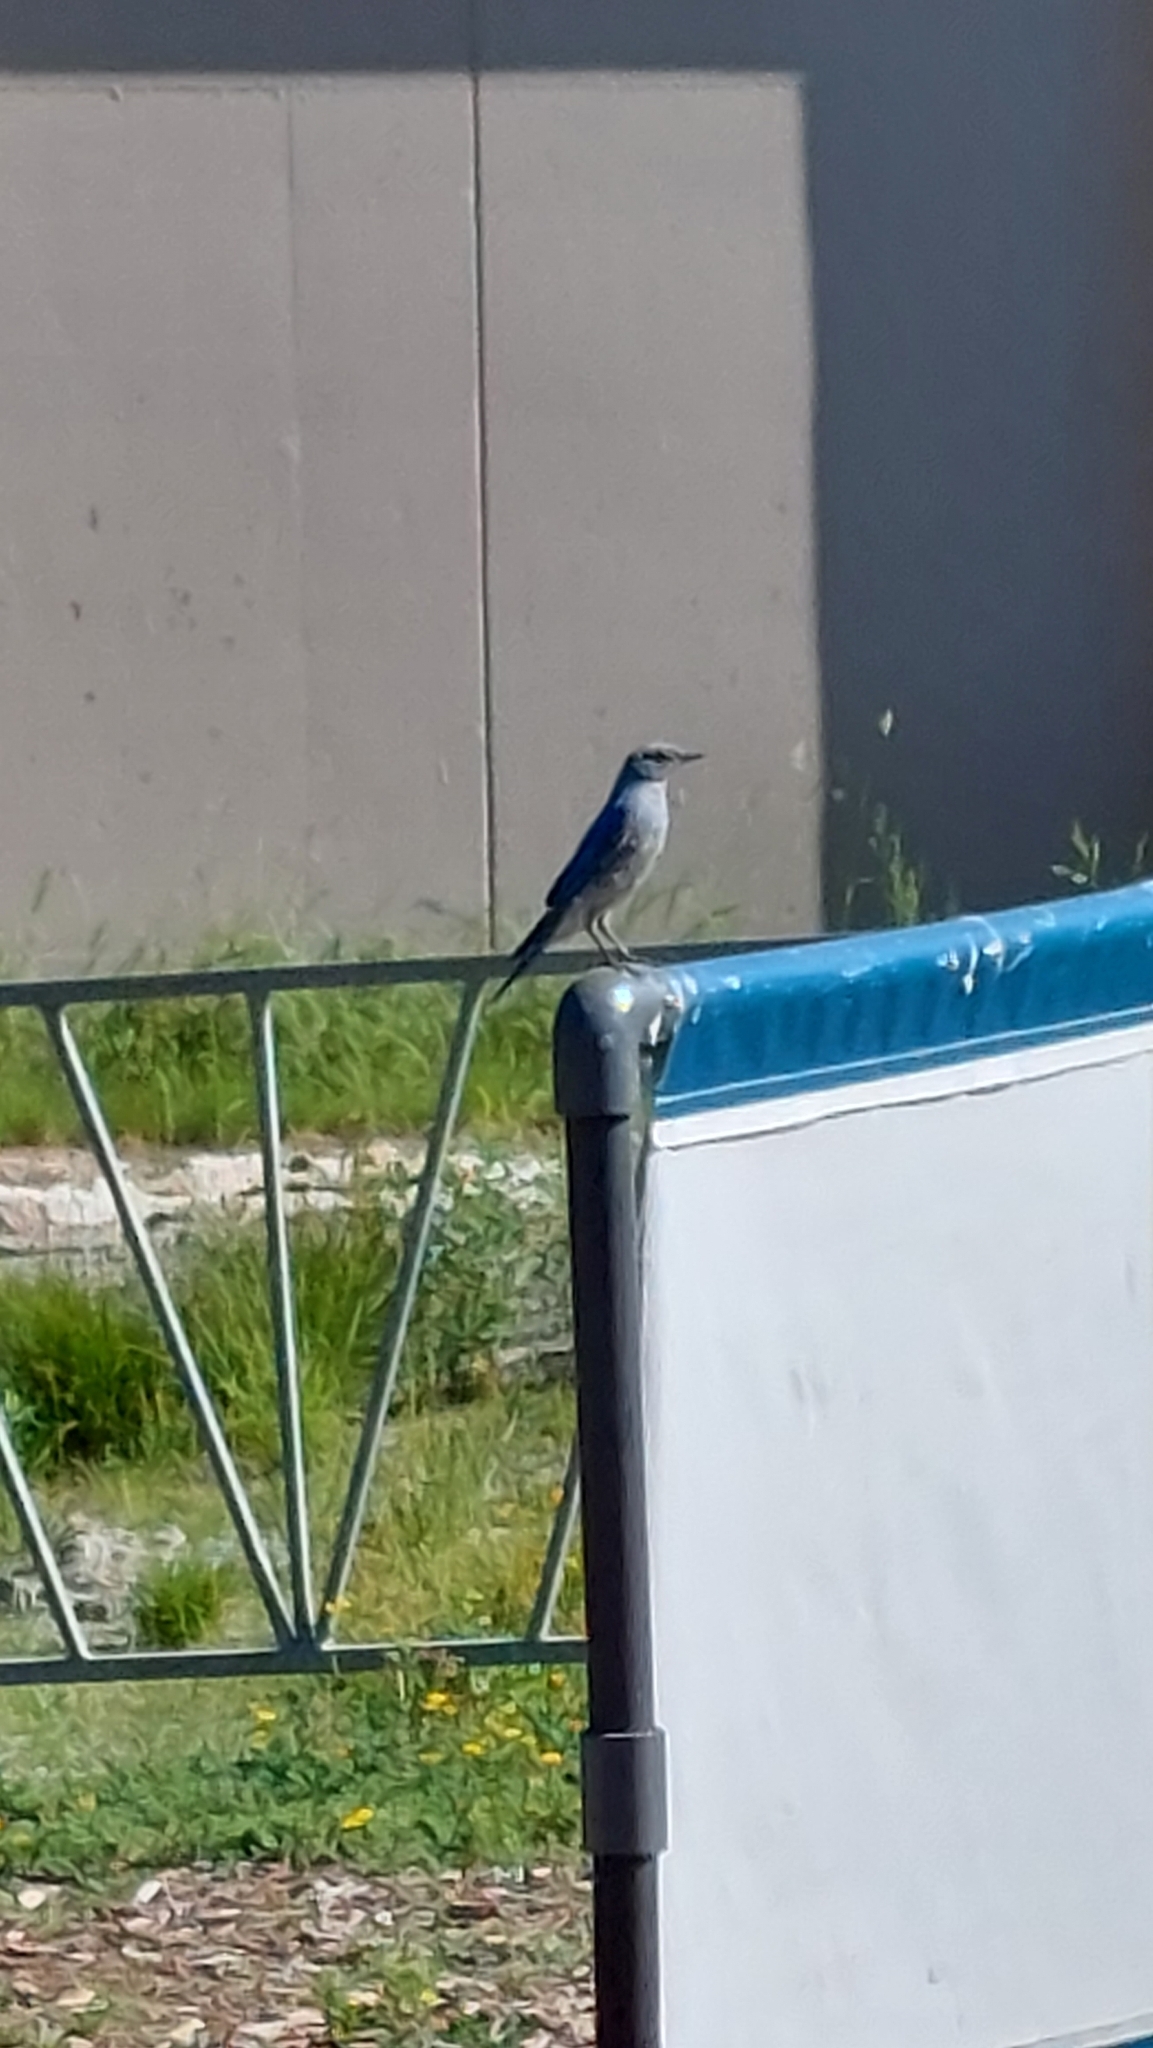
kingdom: Animalia
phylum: Chordata
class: Aves
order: Passeriformes
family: Turdidae
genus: Sialia
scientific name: Sialia currucoides
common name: Mountain bluebird
